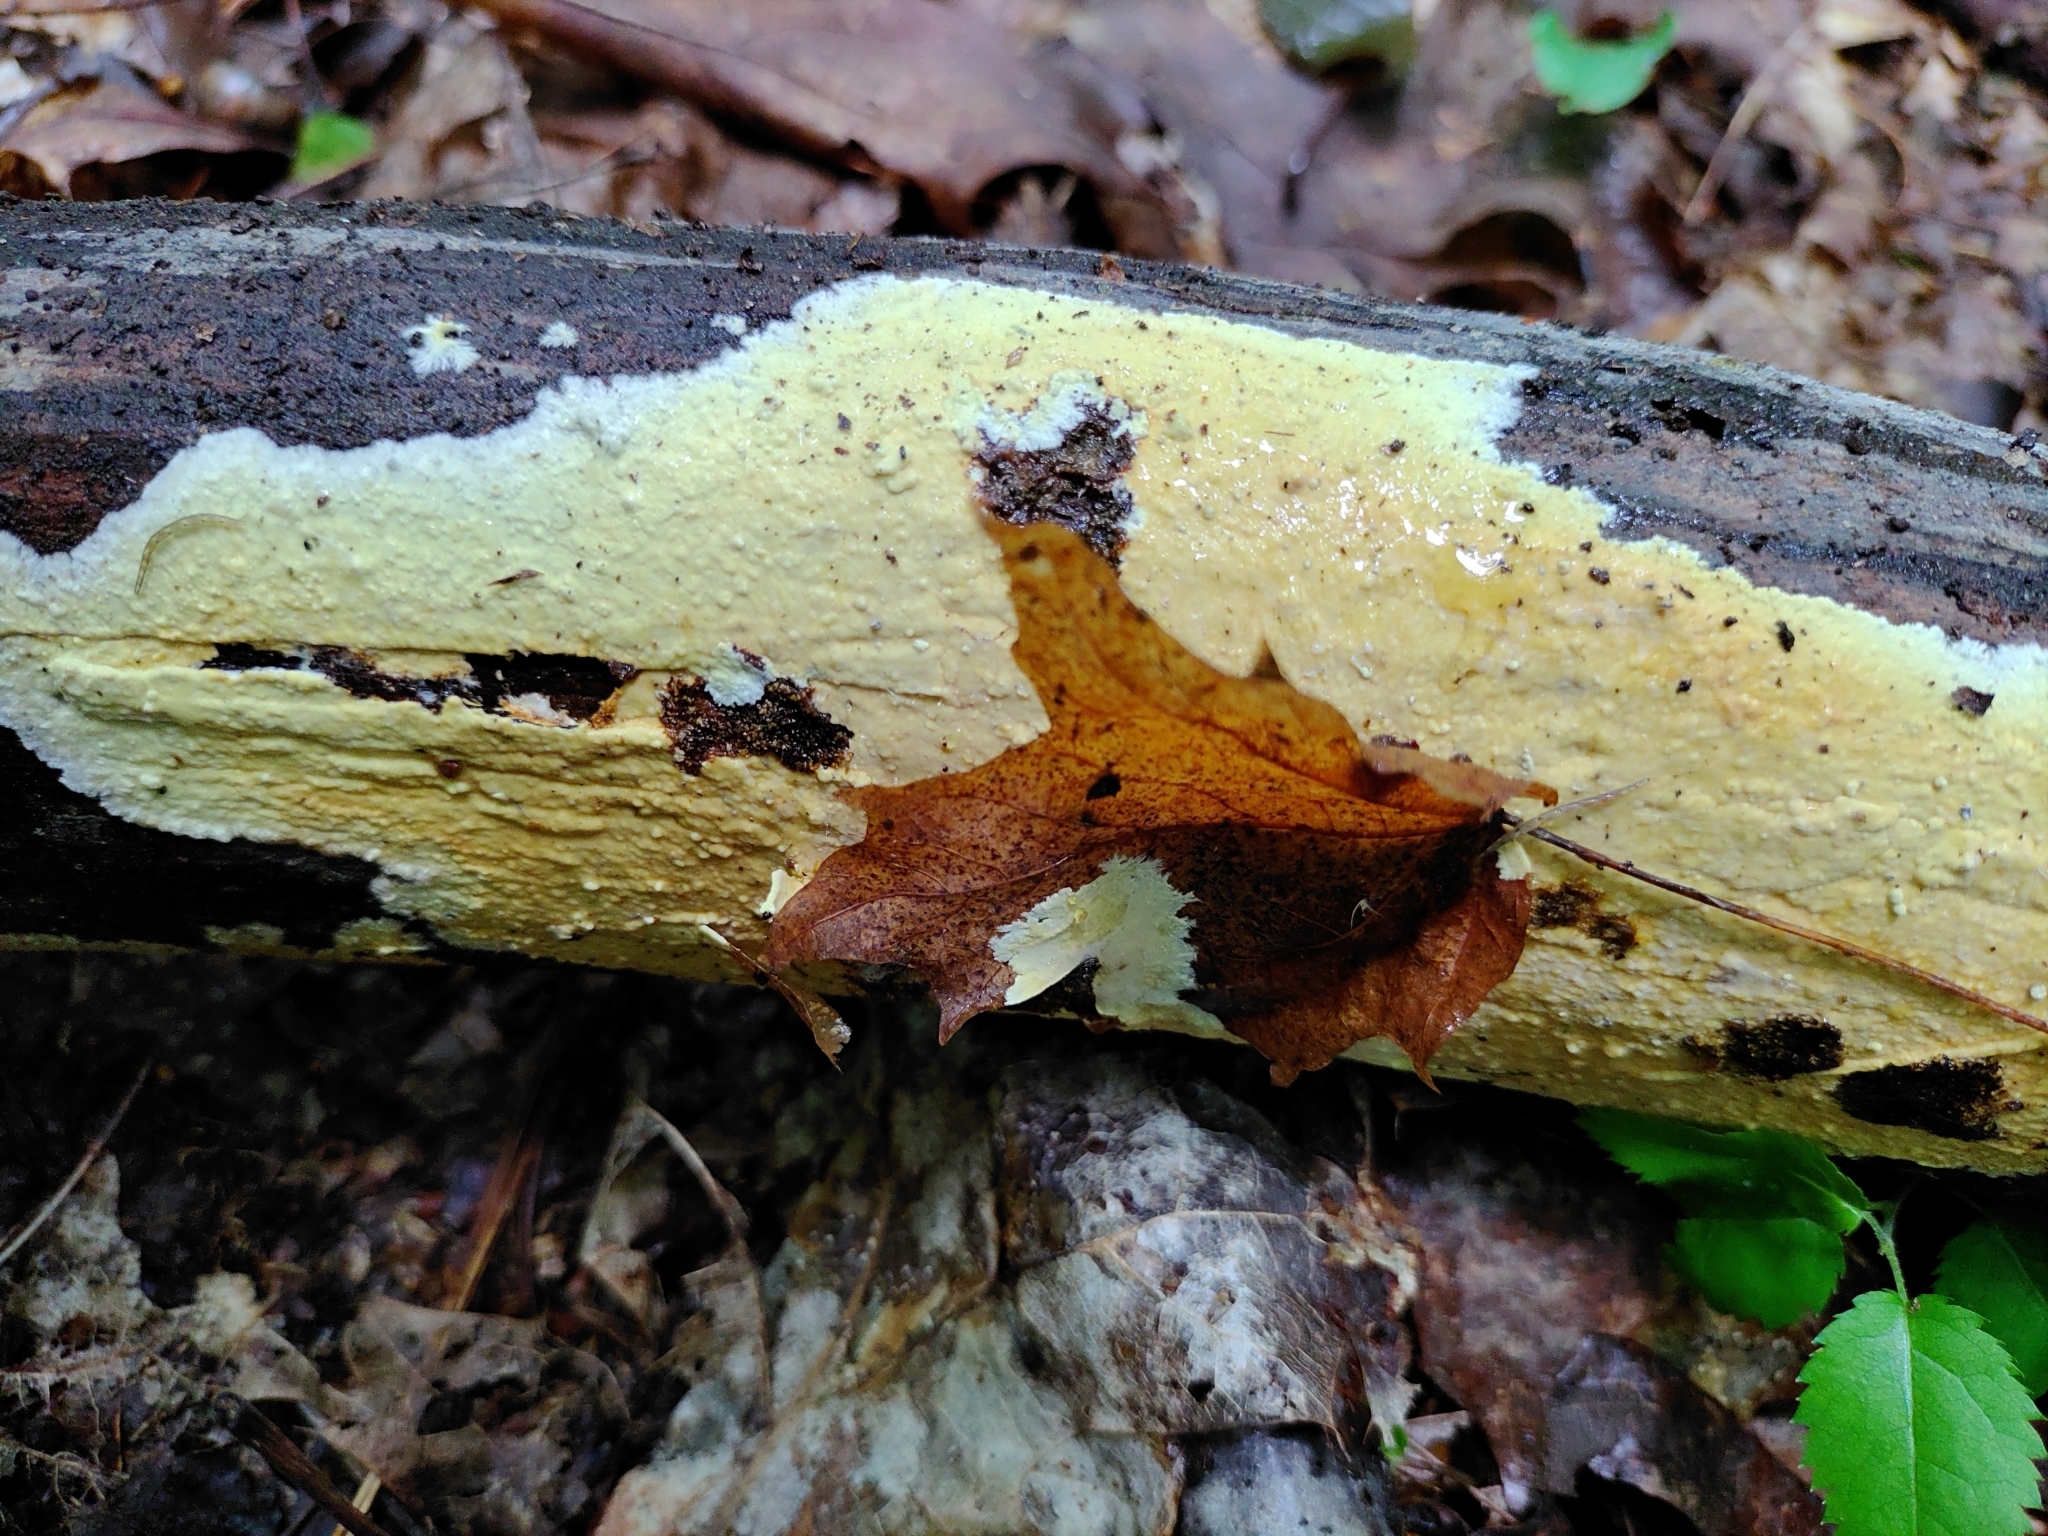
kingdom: Fungi
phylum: Basidiomycota
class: Agaricomycetes
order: Russulales
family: Peniophoraceae
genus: Vararia
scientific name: Vararia investiens
